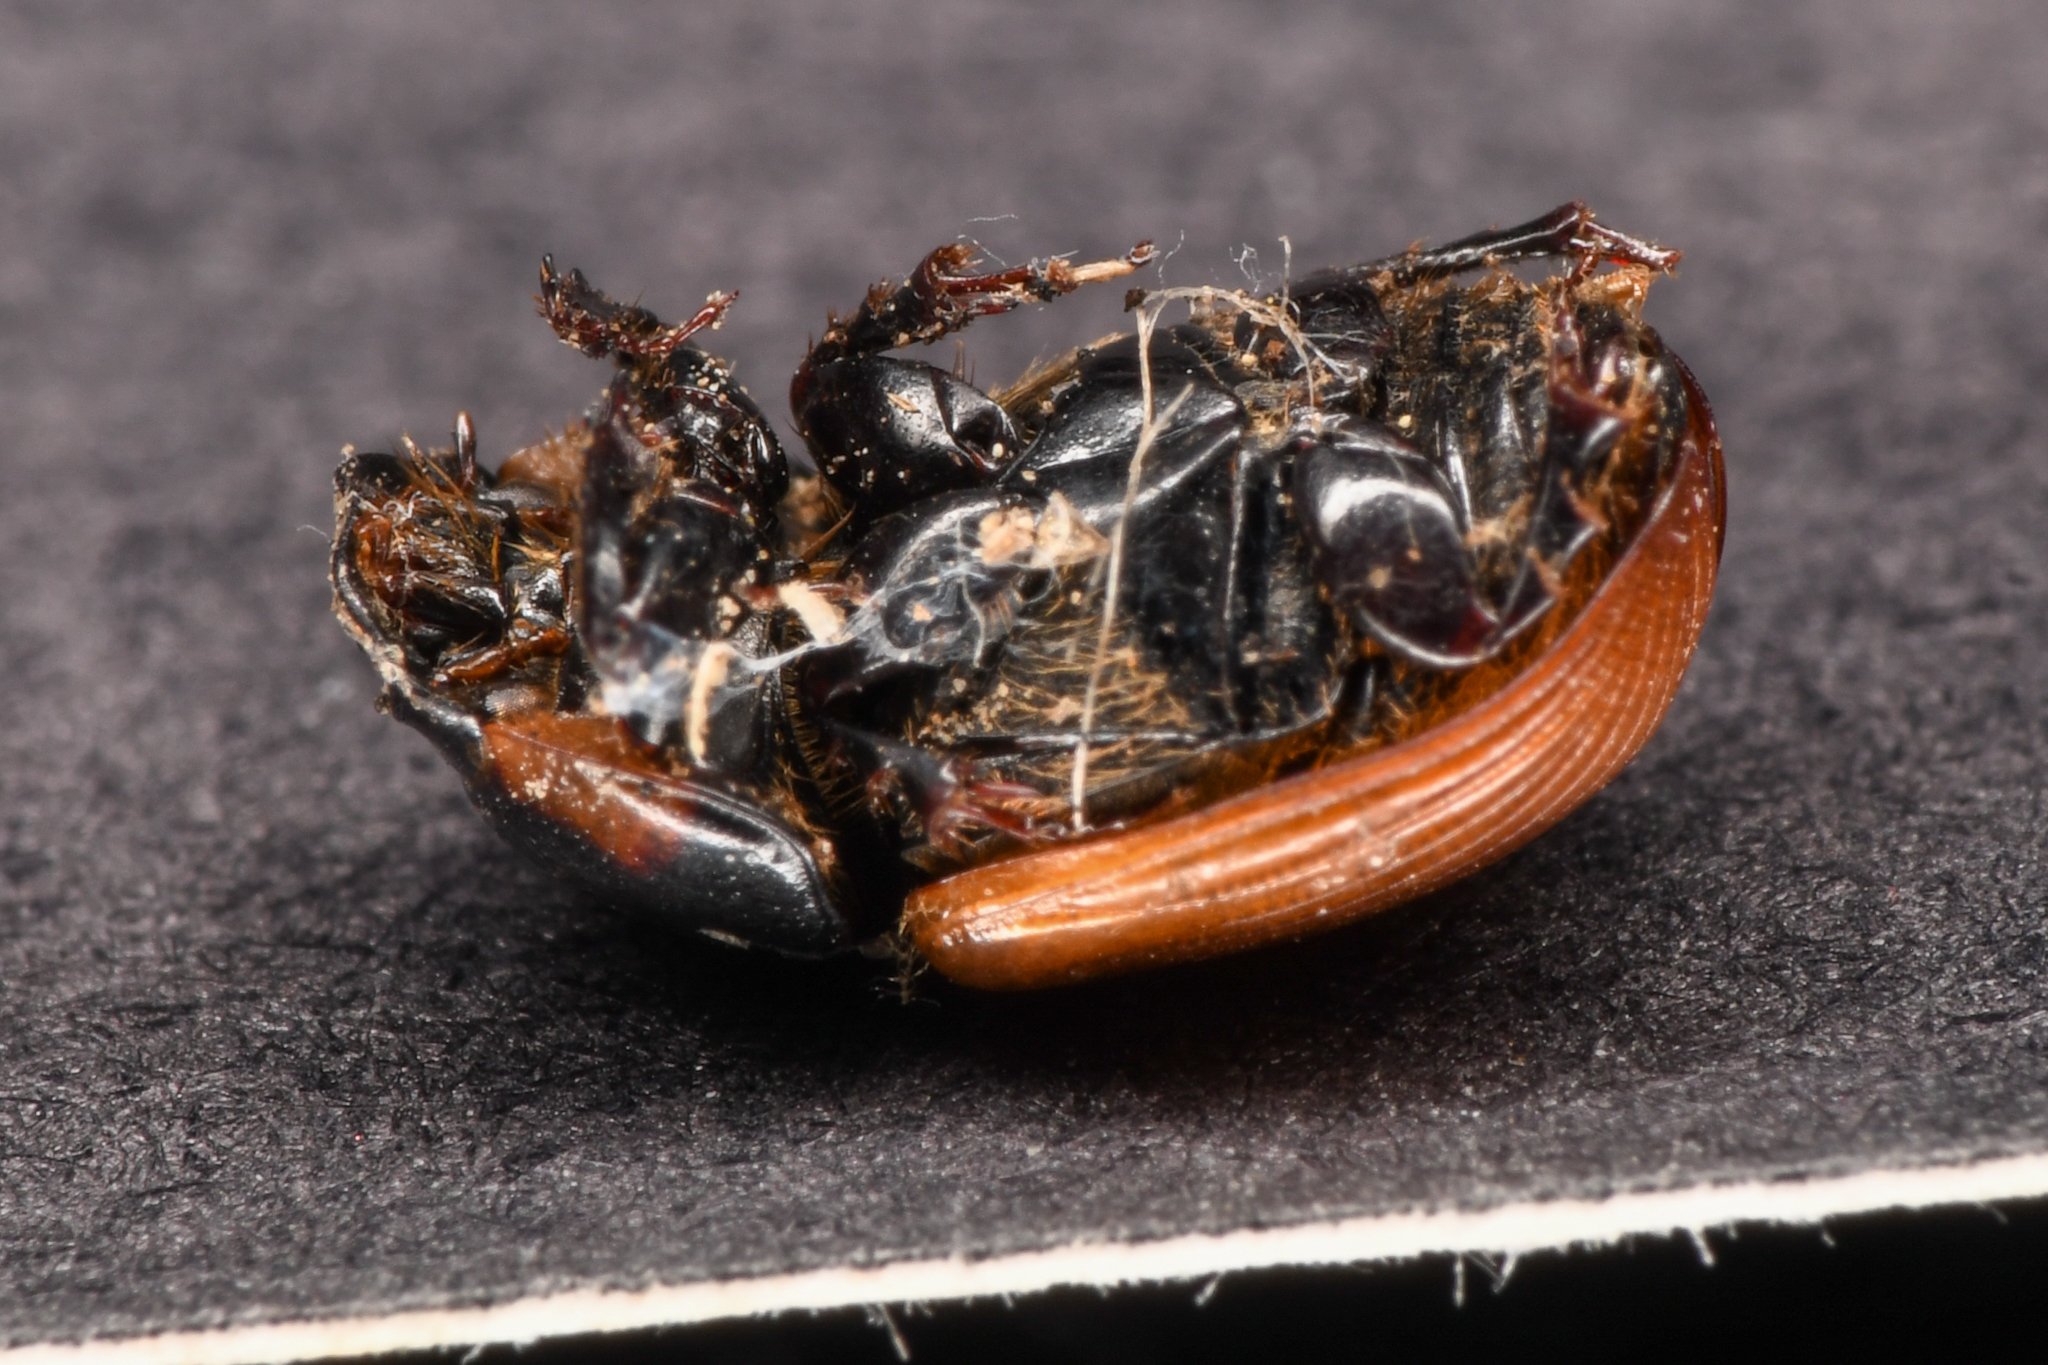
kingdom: Animalia
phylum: Arthropoda
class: Insecta
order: Coleoptera
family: Scarabaeidae
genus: Aphodius
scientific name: Aphodius fimetarius
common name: Common dung beetle
